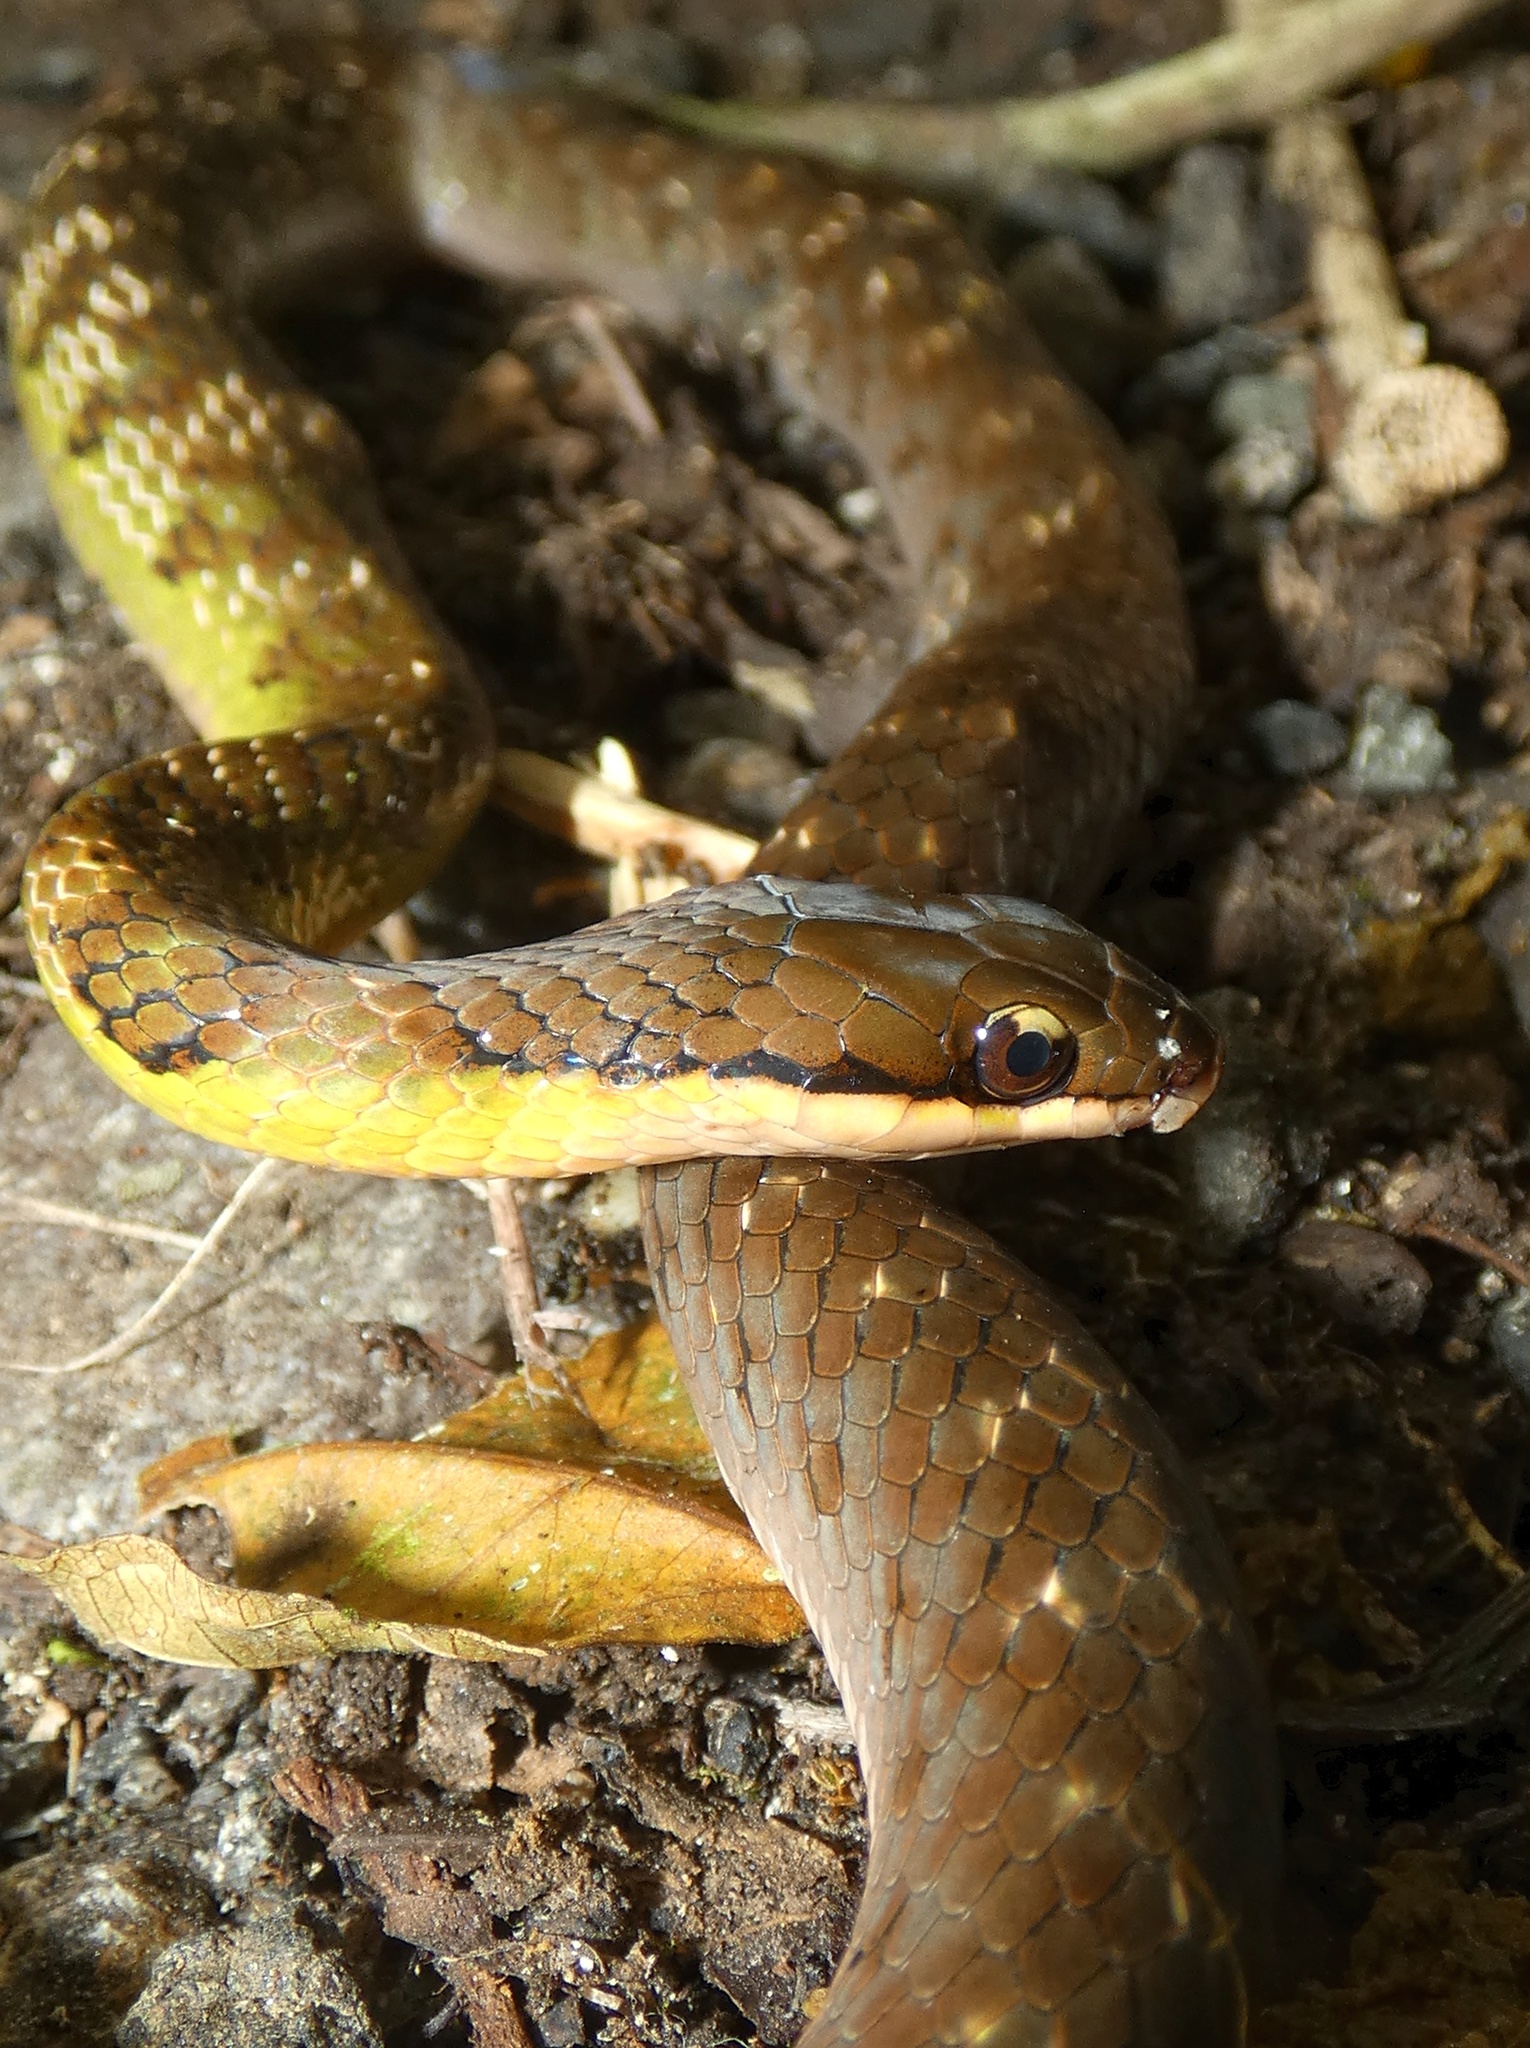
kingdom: Animalia
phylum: Chordata
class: Squamata
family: Colubridae
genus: Erythrolamprus
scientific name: Erythrolamprus epinephalus
